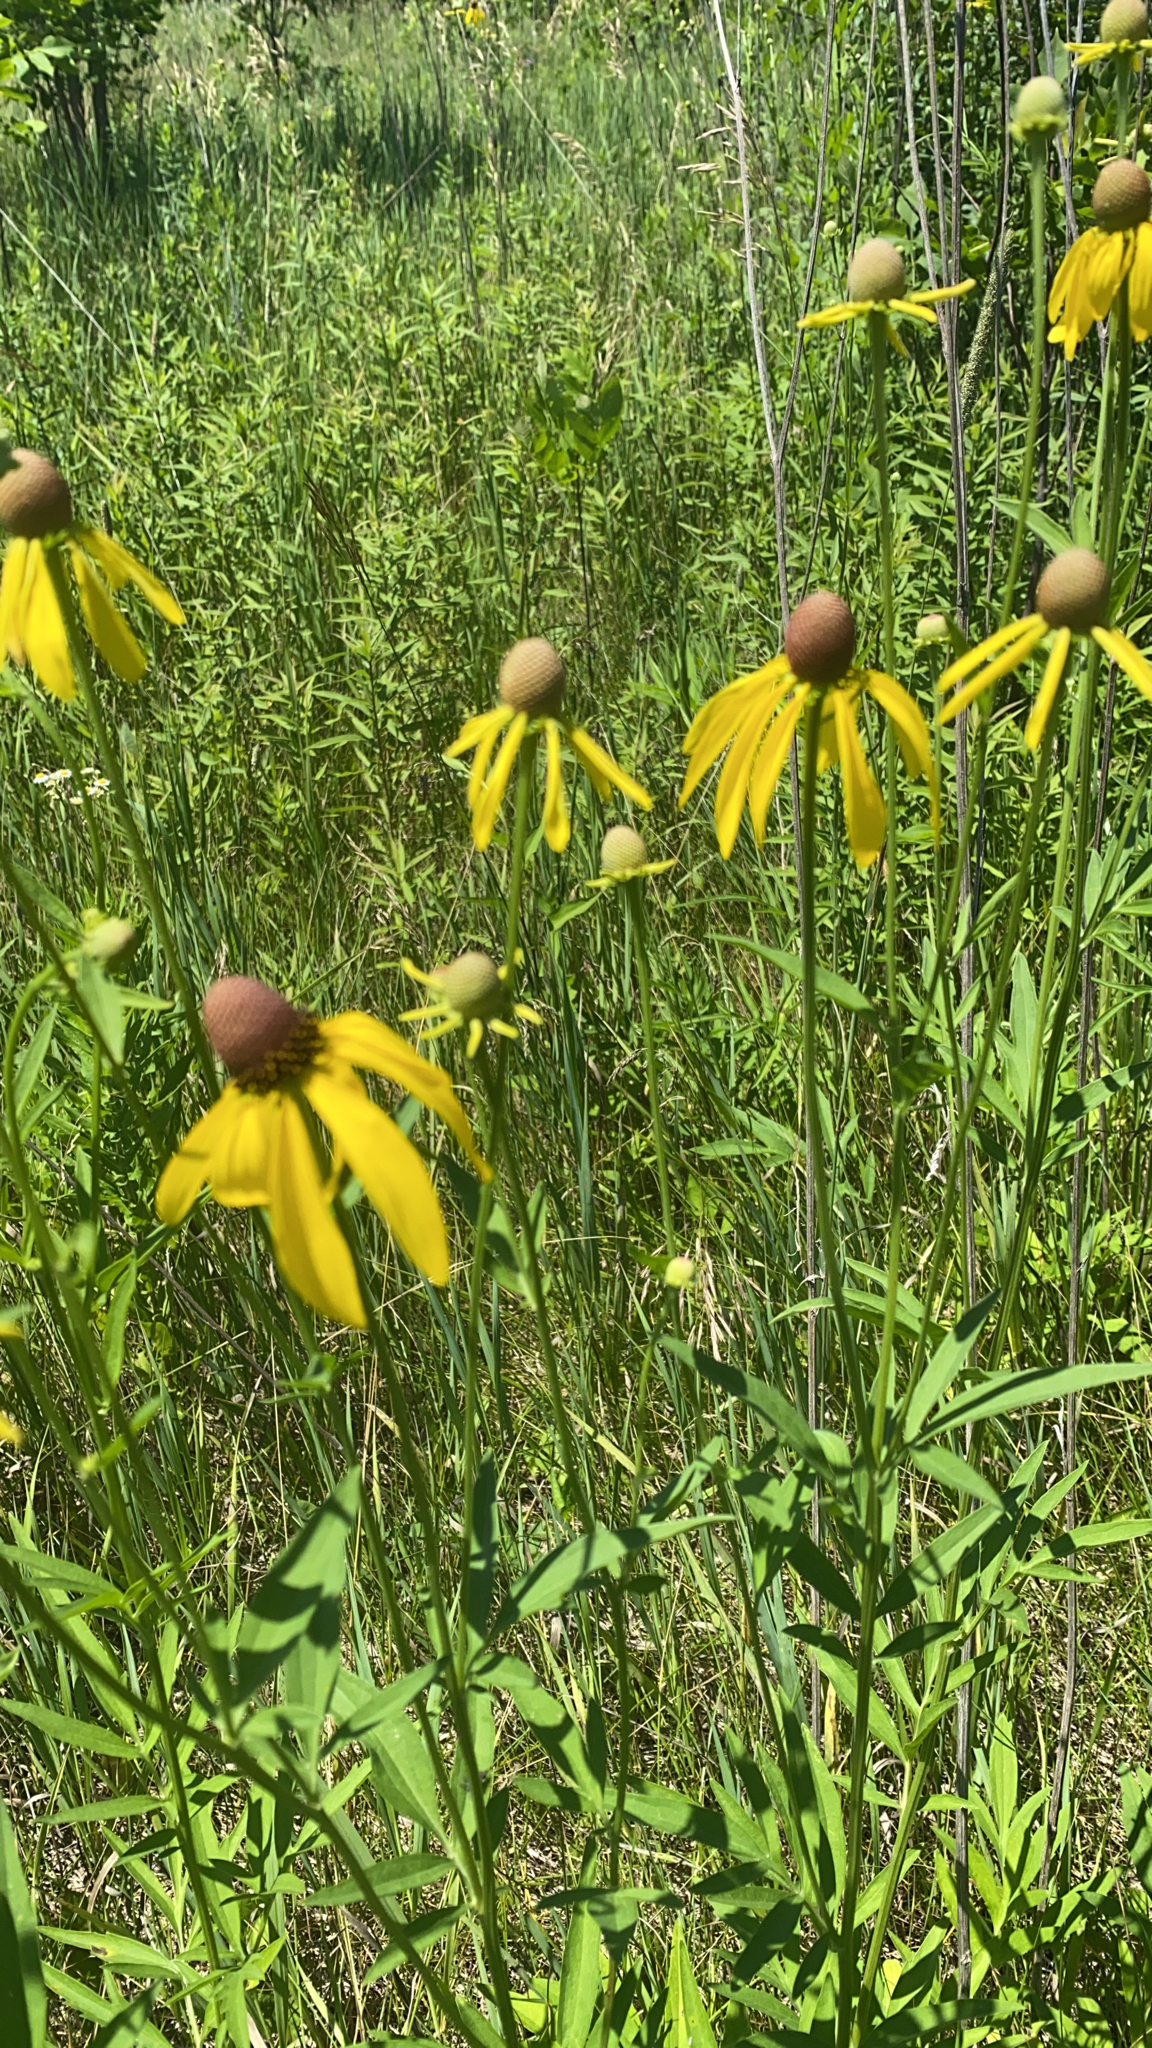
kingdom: Plantae
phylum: Tracheophyta
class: Magnoliopsida
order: Asterales
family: Asteraceae
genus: Ratibida
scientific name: Ratibida pinnata
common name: Drooping prairie-coneflower
